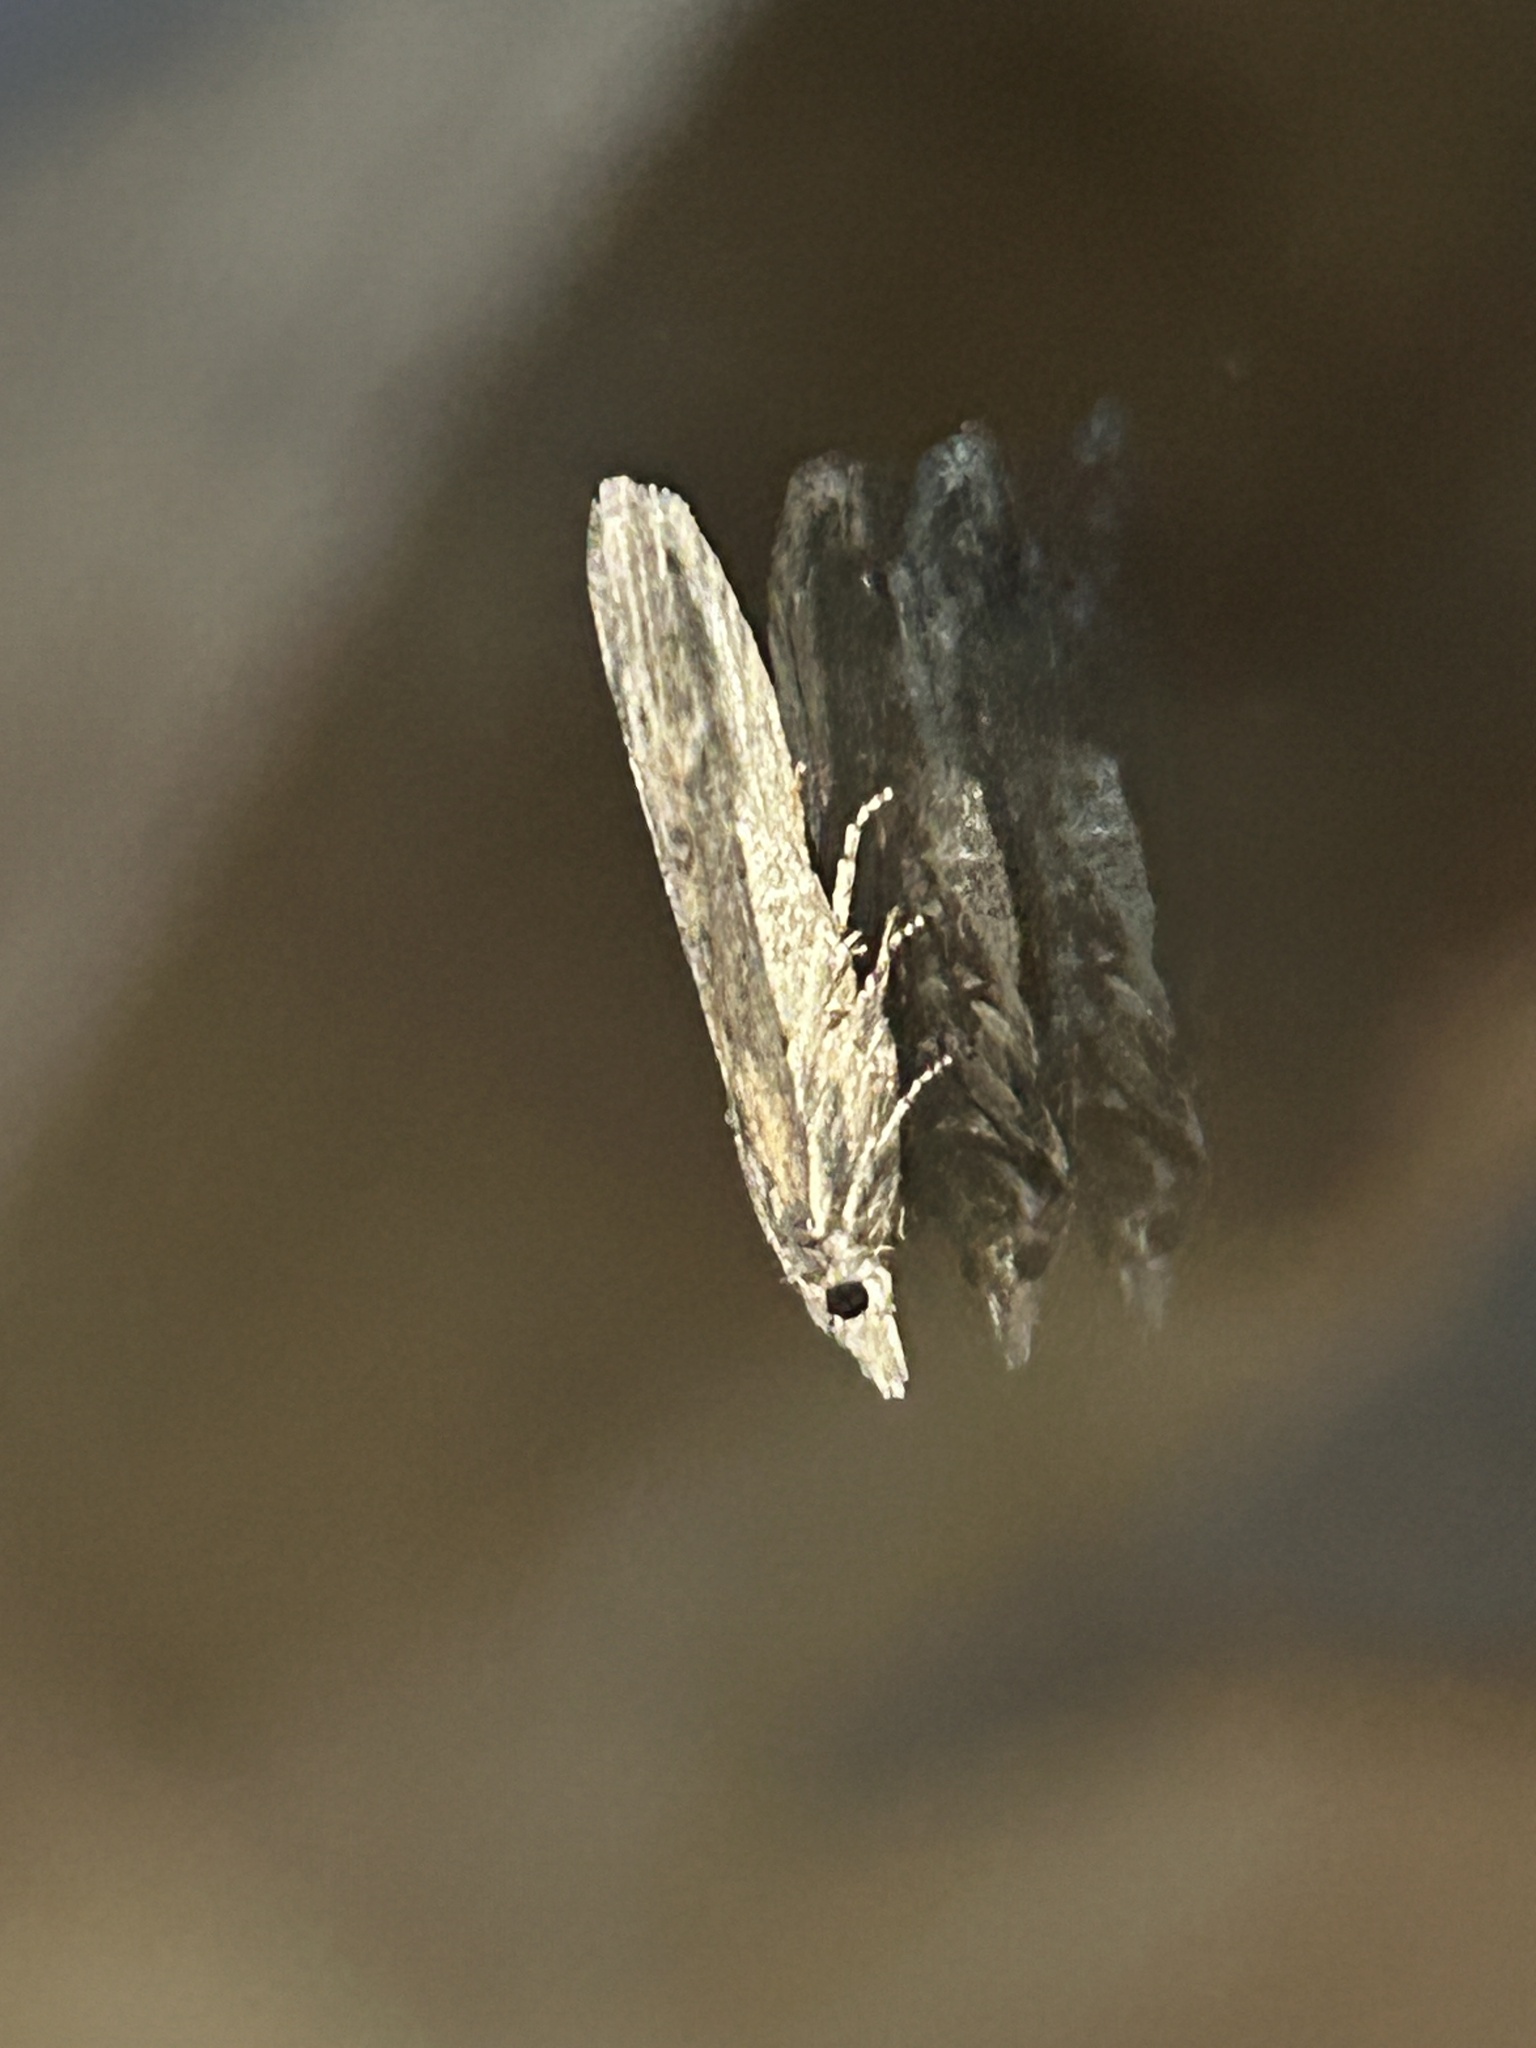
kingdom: Animalia
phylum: Arthropoda
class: Insecta
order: Lepidoptera
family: Pyralidae
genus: Lamoria
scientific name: Lamoria anella
